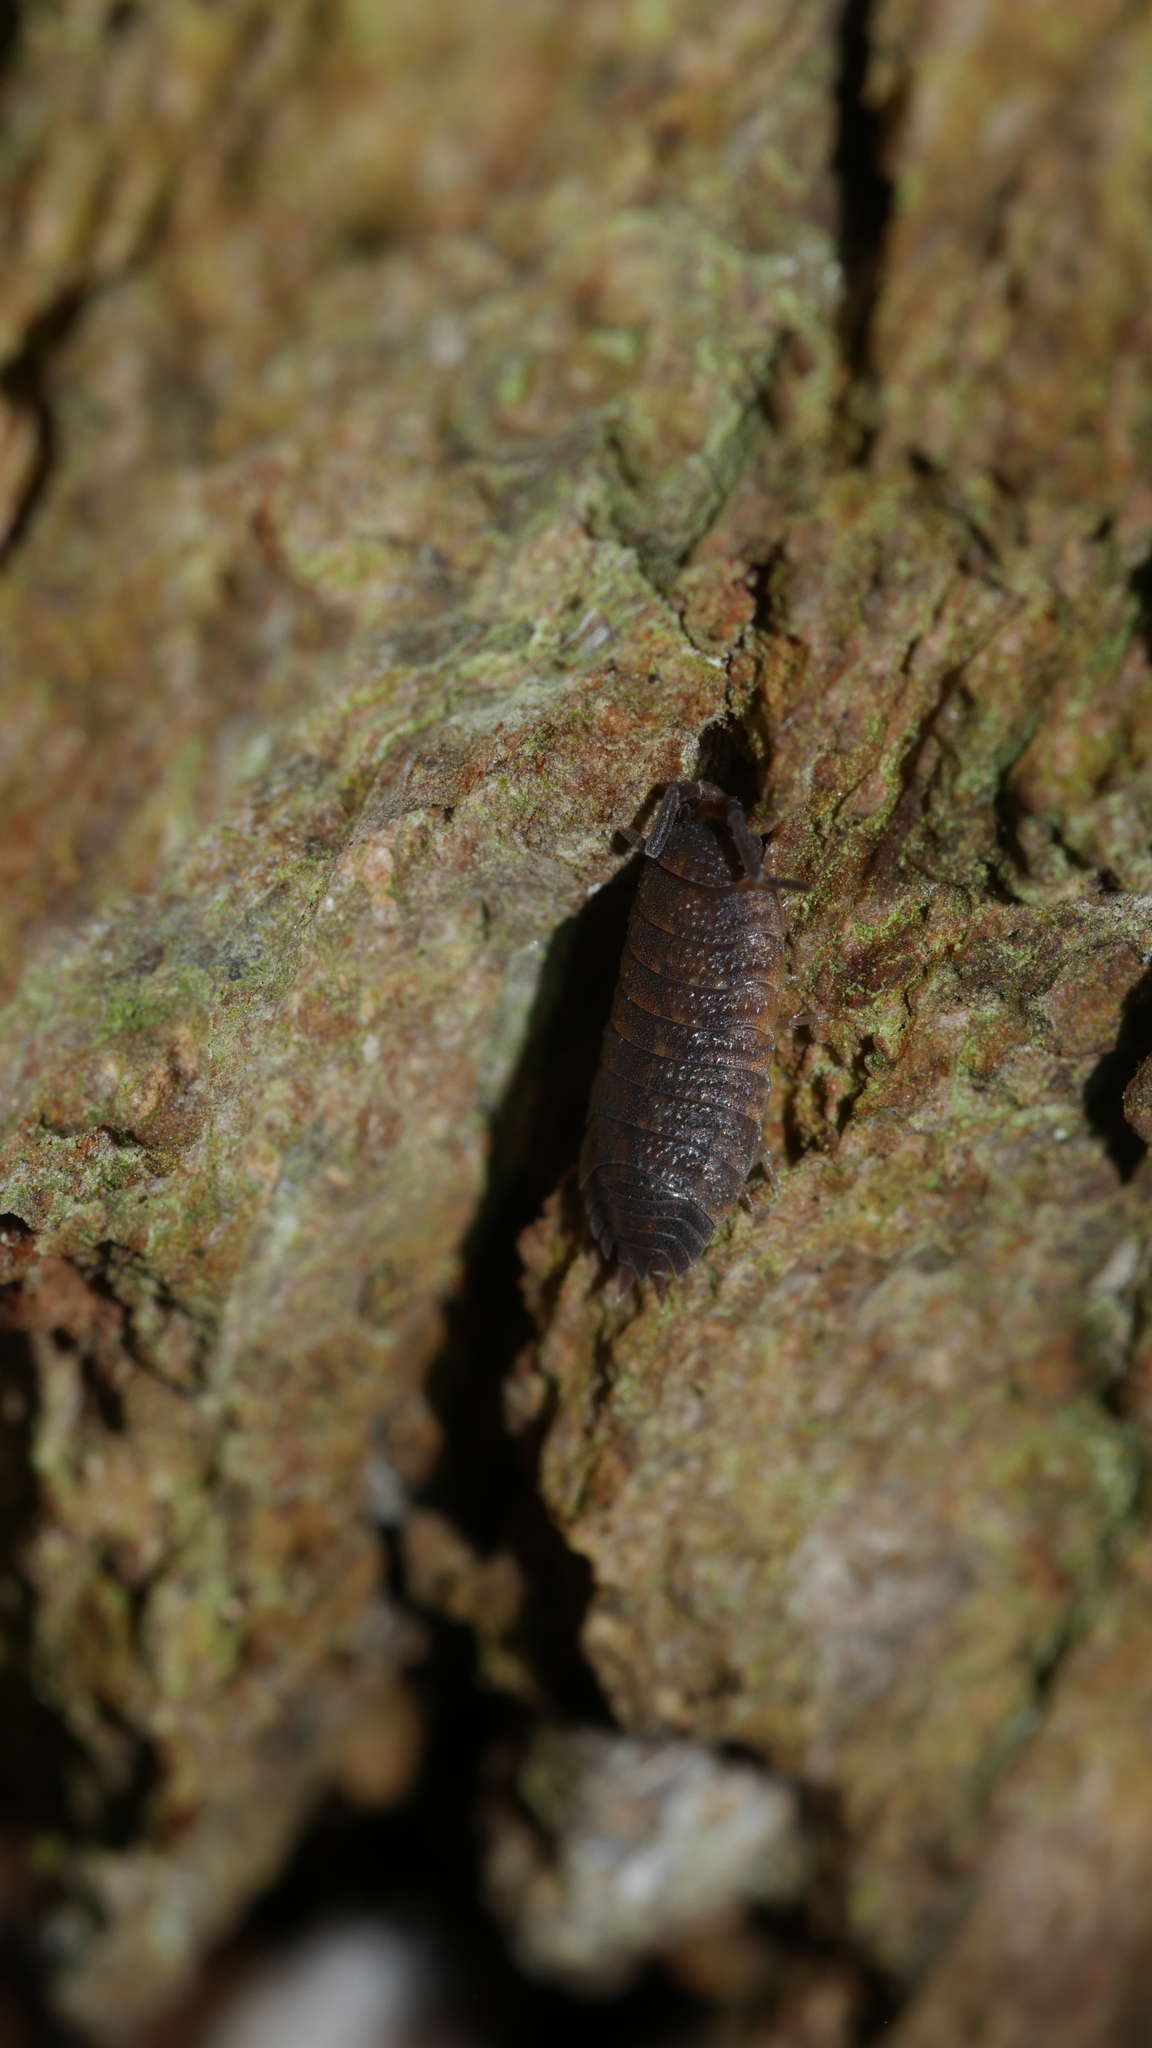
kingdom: Animalia
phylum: Arthropoda
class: Malacostraca
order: Isopoda
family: Porcellionidae
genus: Porcellio
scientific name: Porcellio scaber
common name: Common rough woodlouse
